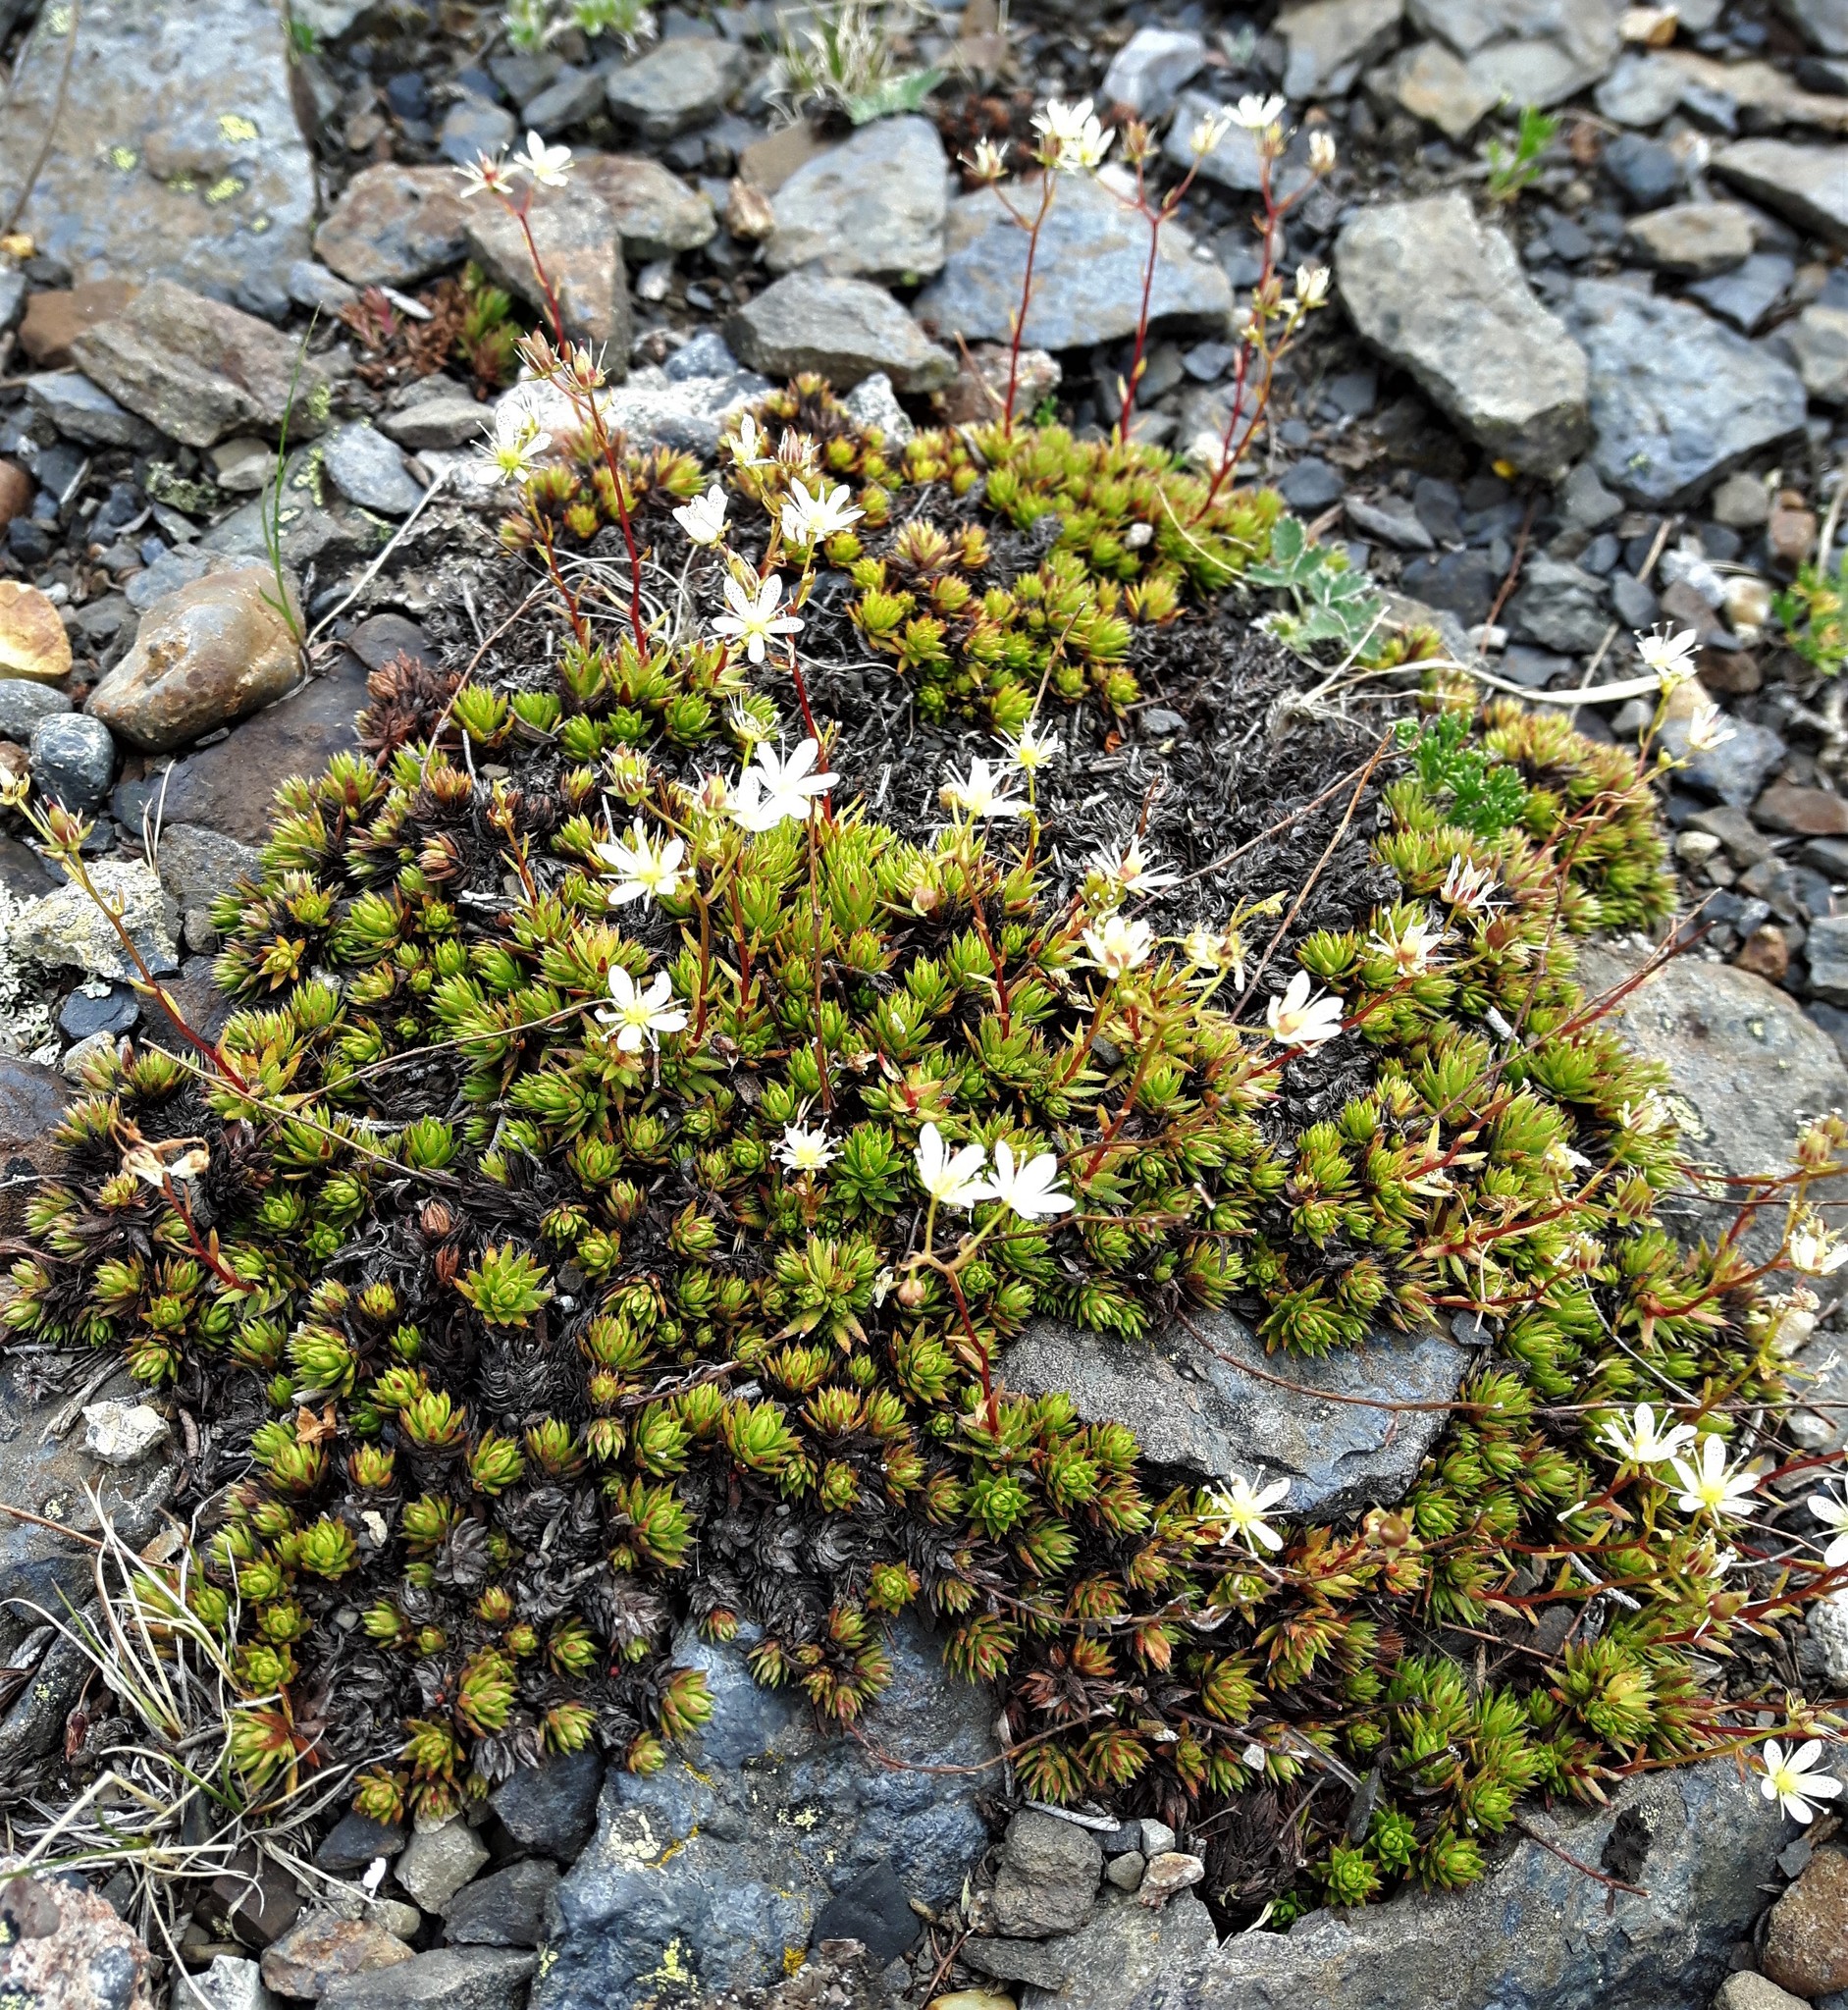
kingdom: Plantae
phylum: Tracheophyta
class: Magnoliopsida
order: Saxifragales
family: Saxifragaceae
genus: Saxifraga
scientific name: Saxifraga bronchialis
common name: Matted saxifrage
